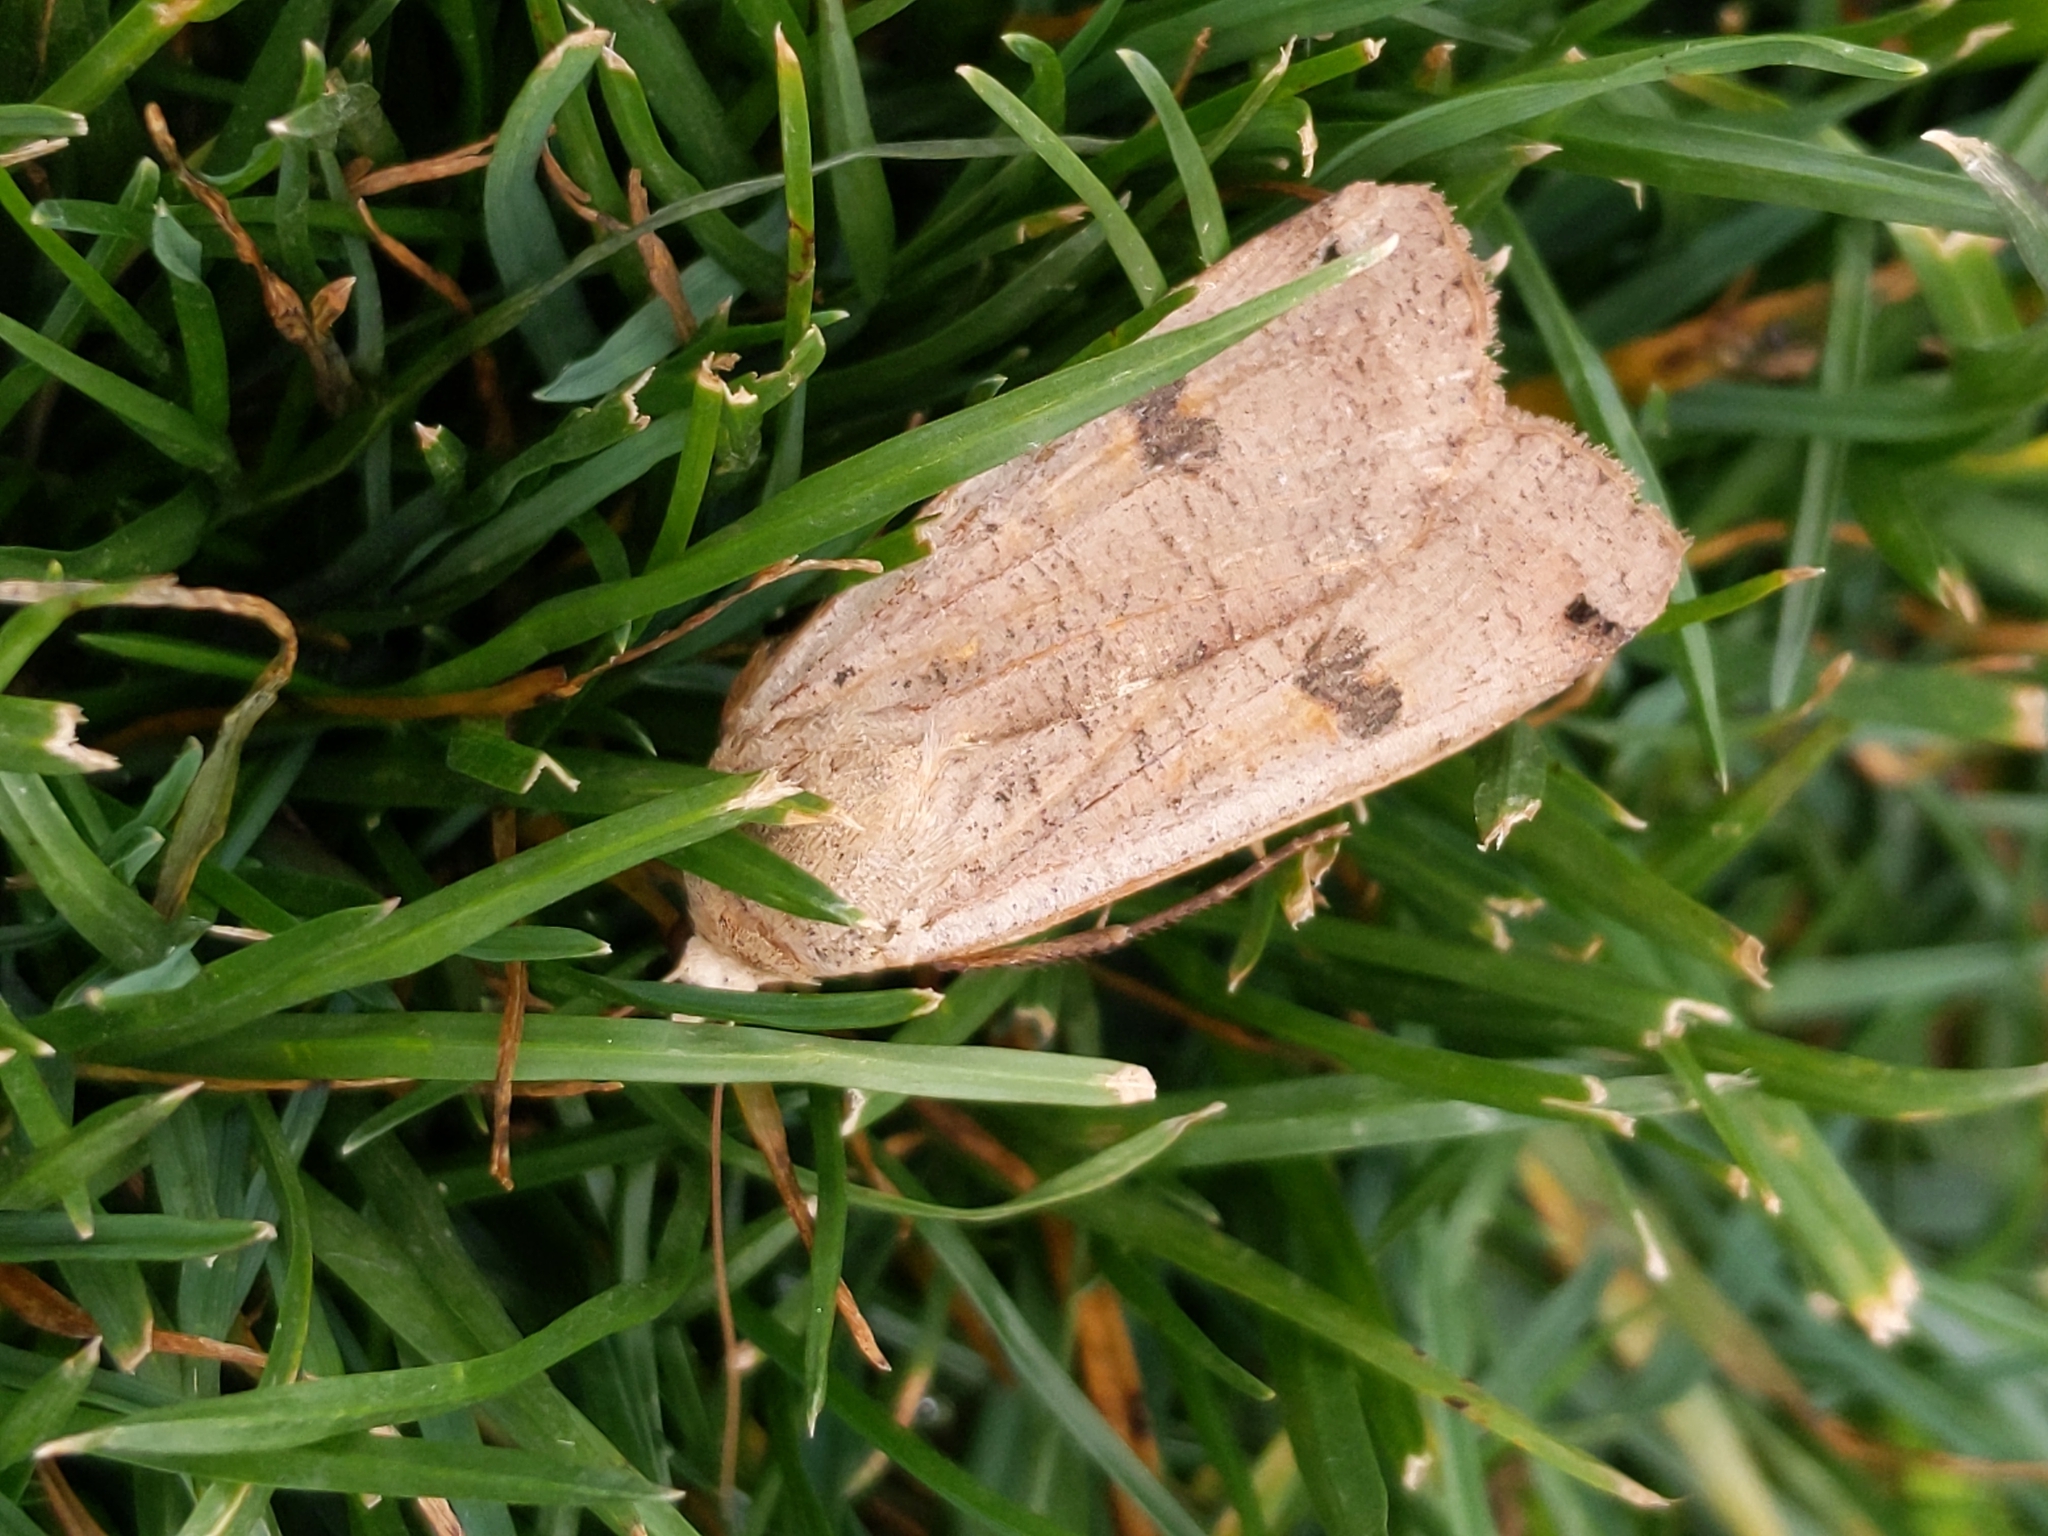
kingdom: Animalia
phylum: Arthropoda
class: Insecta
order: Lepidoptera
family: Noctuidae
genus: Noctua
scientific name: Noctua pronuba
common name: Large yellow underwing
